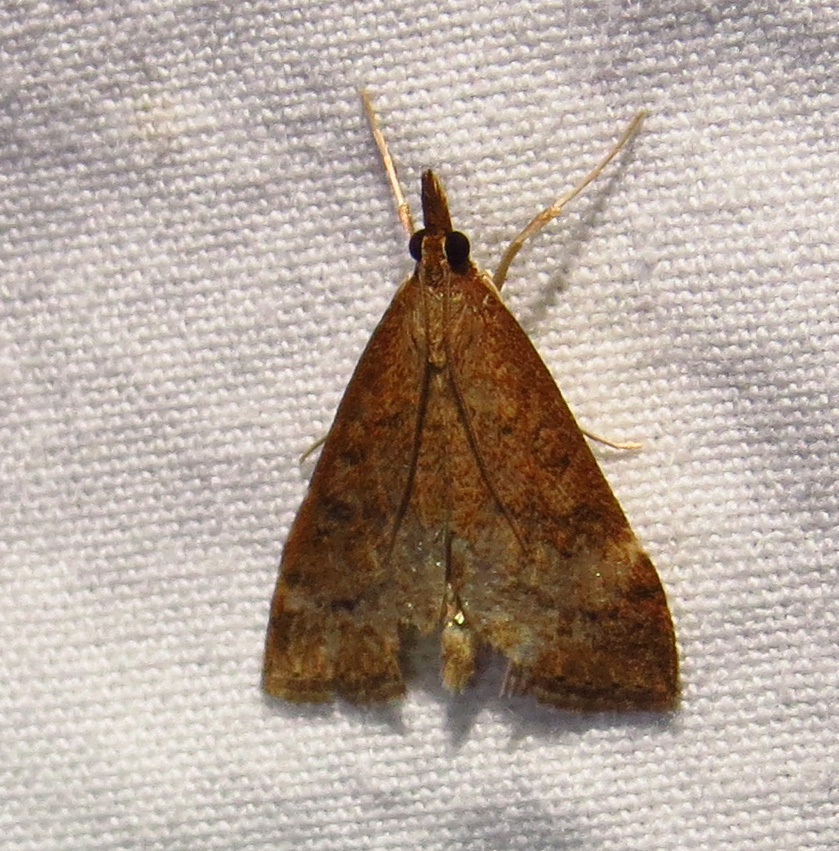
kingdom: Animalia
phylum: Arthropoda
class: Insecta
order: Lepidoptera
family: Crambidae
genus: Udea
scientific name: Udea rubigalis
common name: Celery leaftier moth
